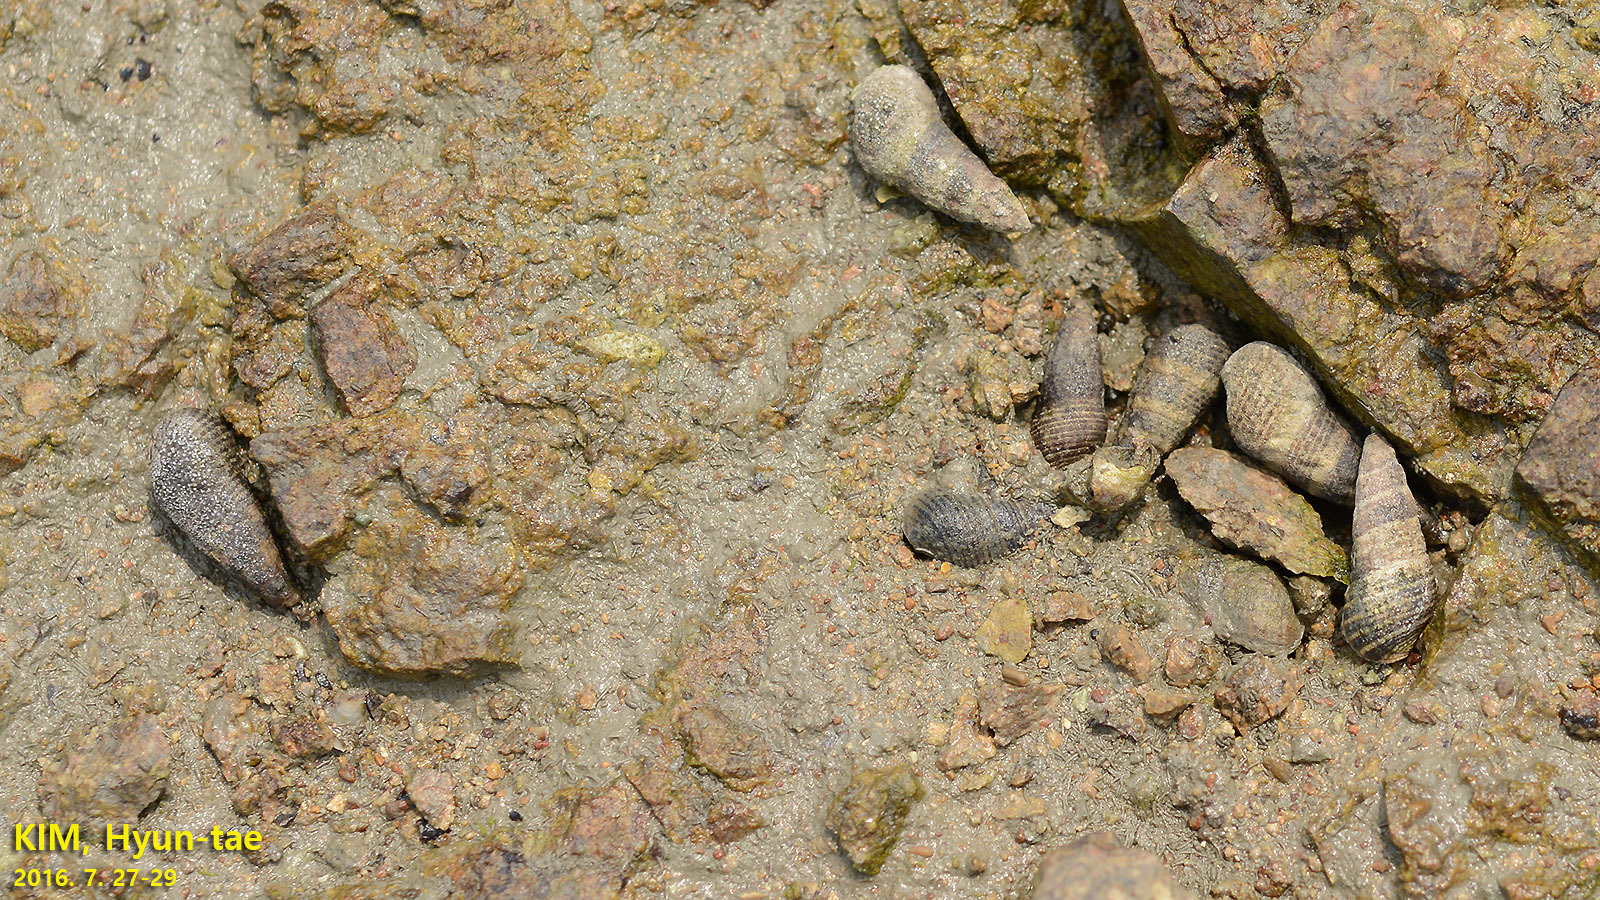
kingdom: Animalia
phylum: Mollusca
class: Gastropoda
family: Batillariidae
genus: Batillaria
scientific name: Batillaria attramentaria
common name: Japanese false cerith
